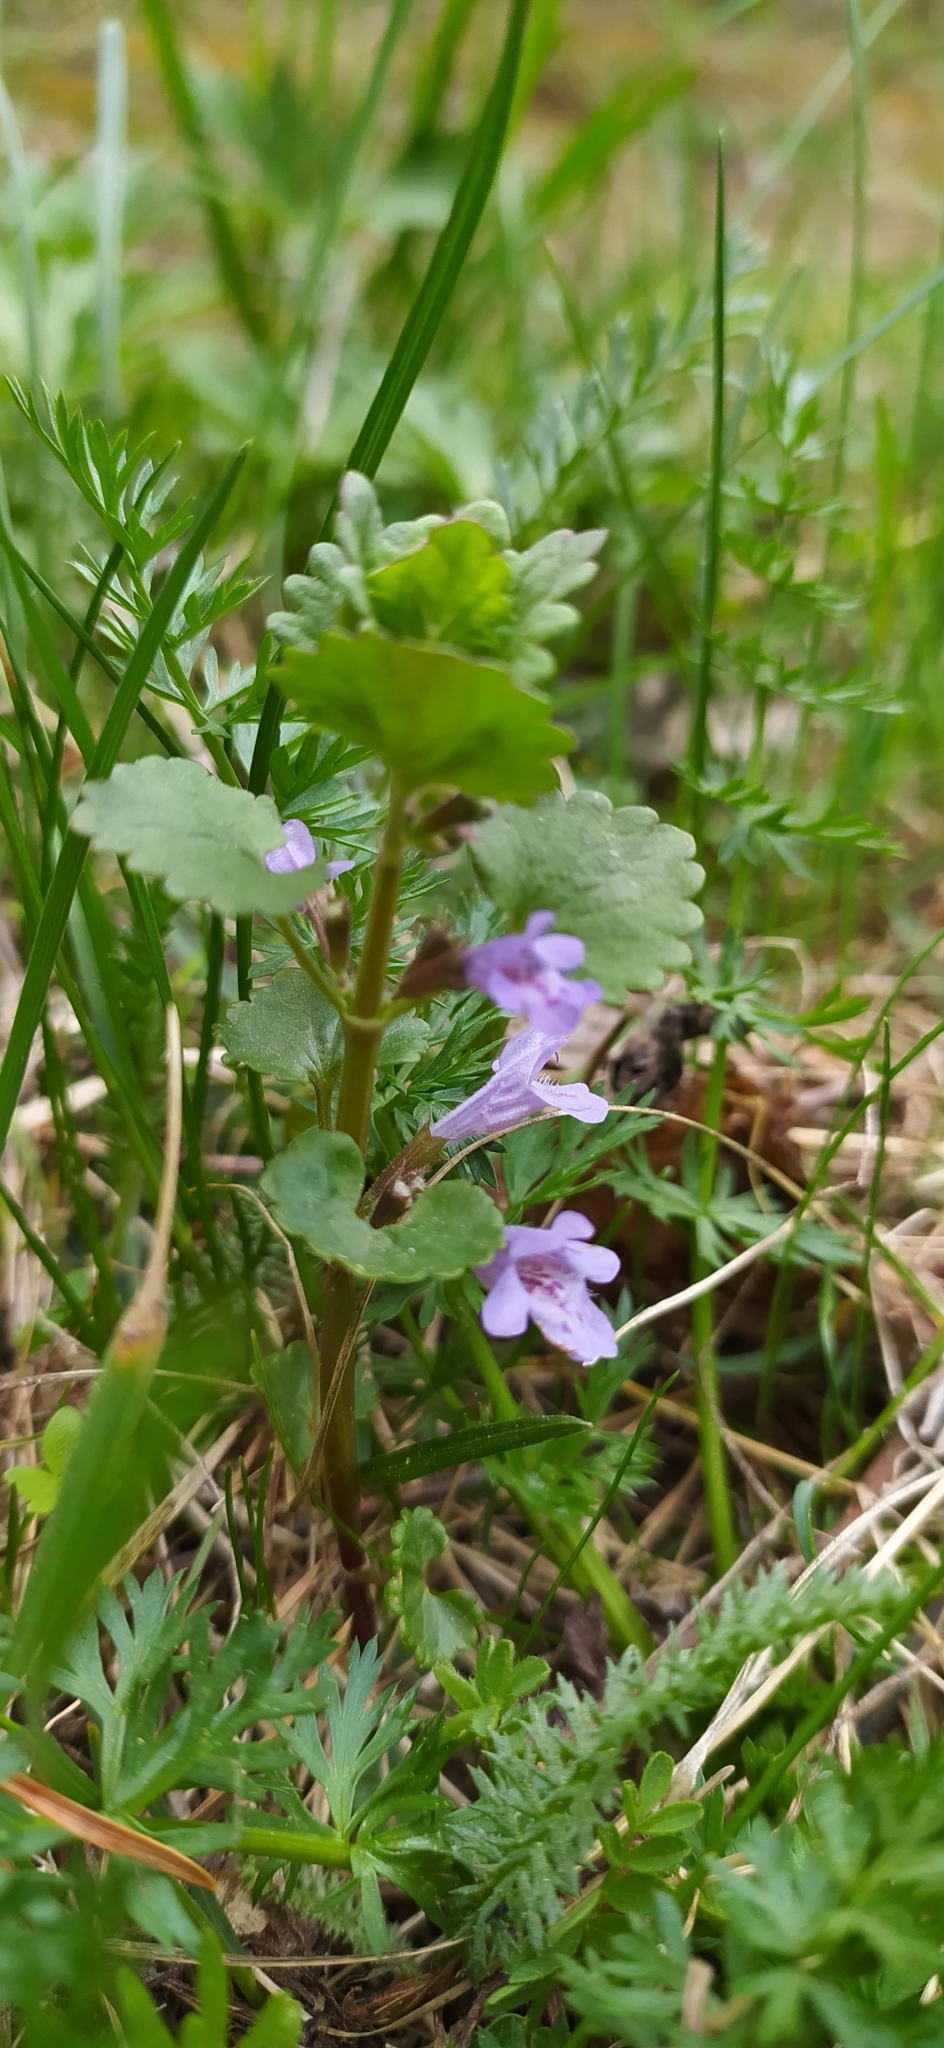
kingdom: Plantae
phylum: Tracheophyta
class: Magnoliopsida
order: Lamiales
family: Lamiaceae
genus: Glechoma
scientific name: Glechoma hederacea
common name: Ground ivy
